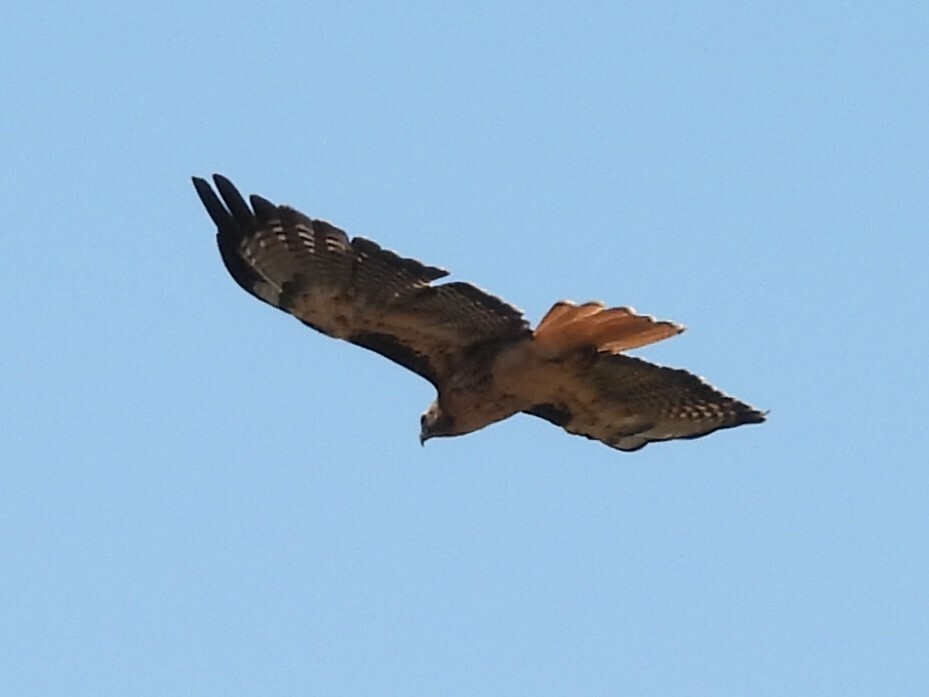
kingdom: Animalia
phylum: Chordata
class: Aves
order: Accipitriformes
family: Accipitridae
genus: Buteo
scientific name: Buteo jamaicensis
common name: Red-tailed hawk
